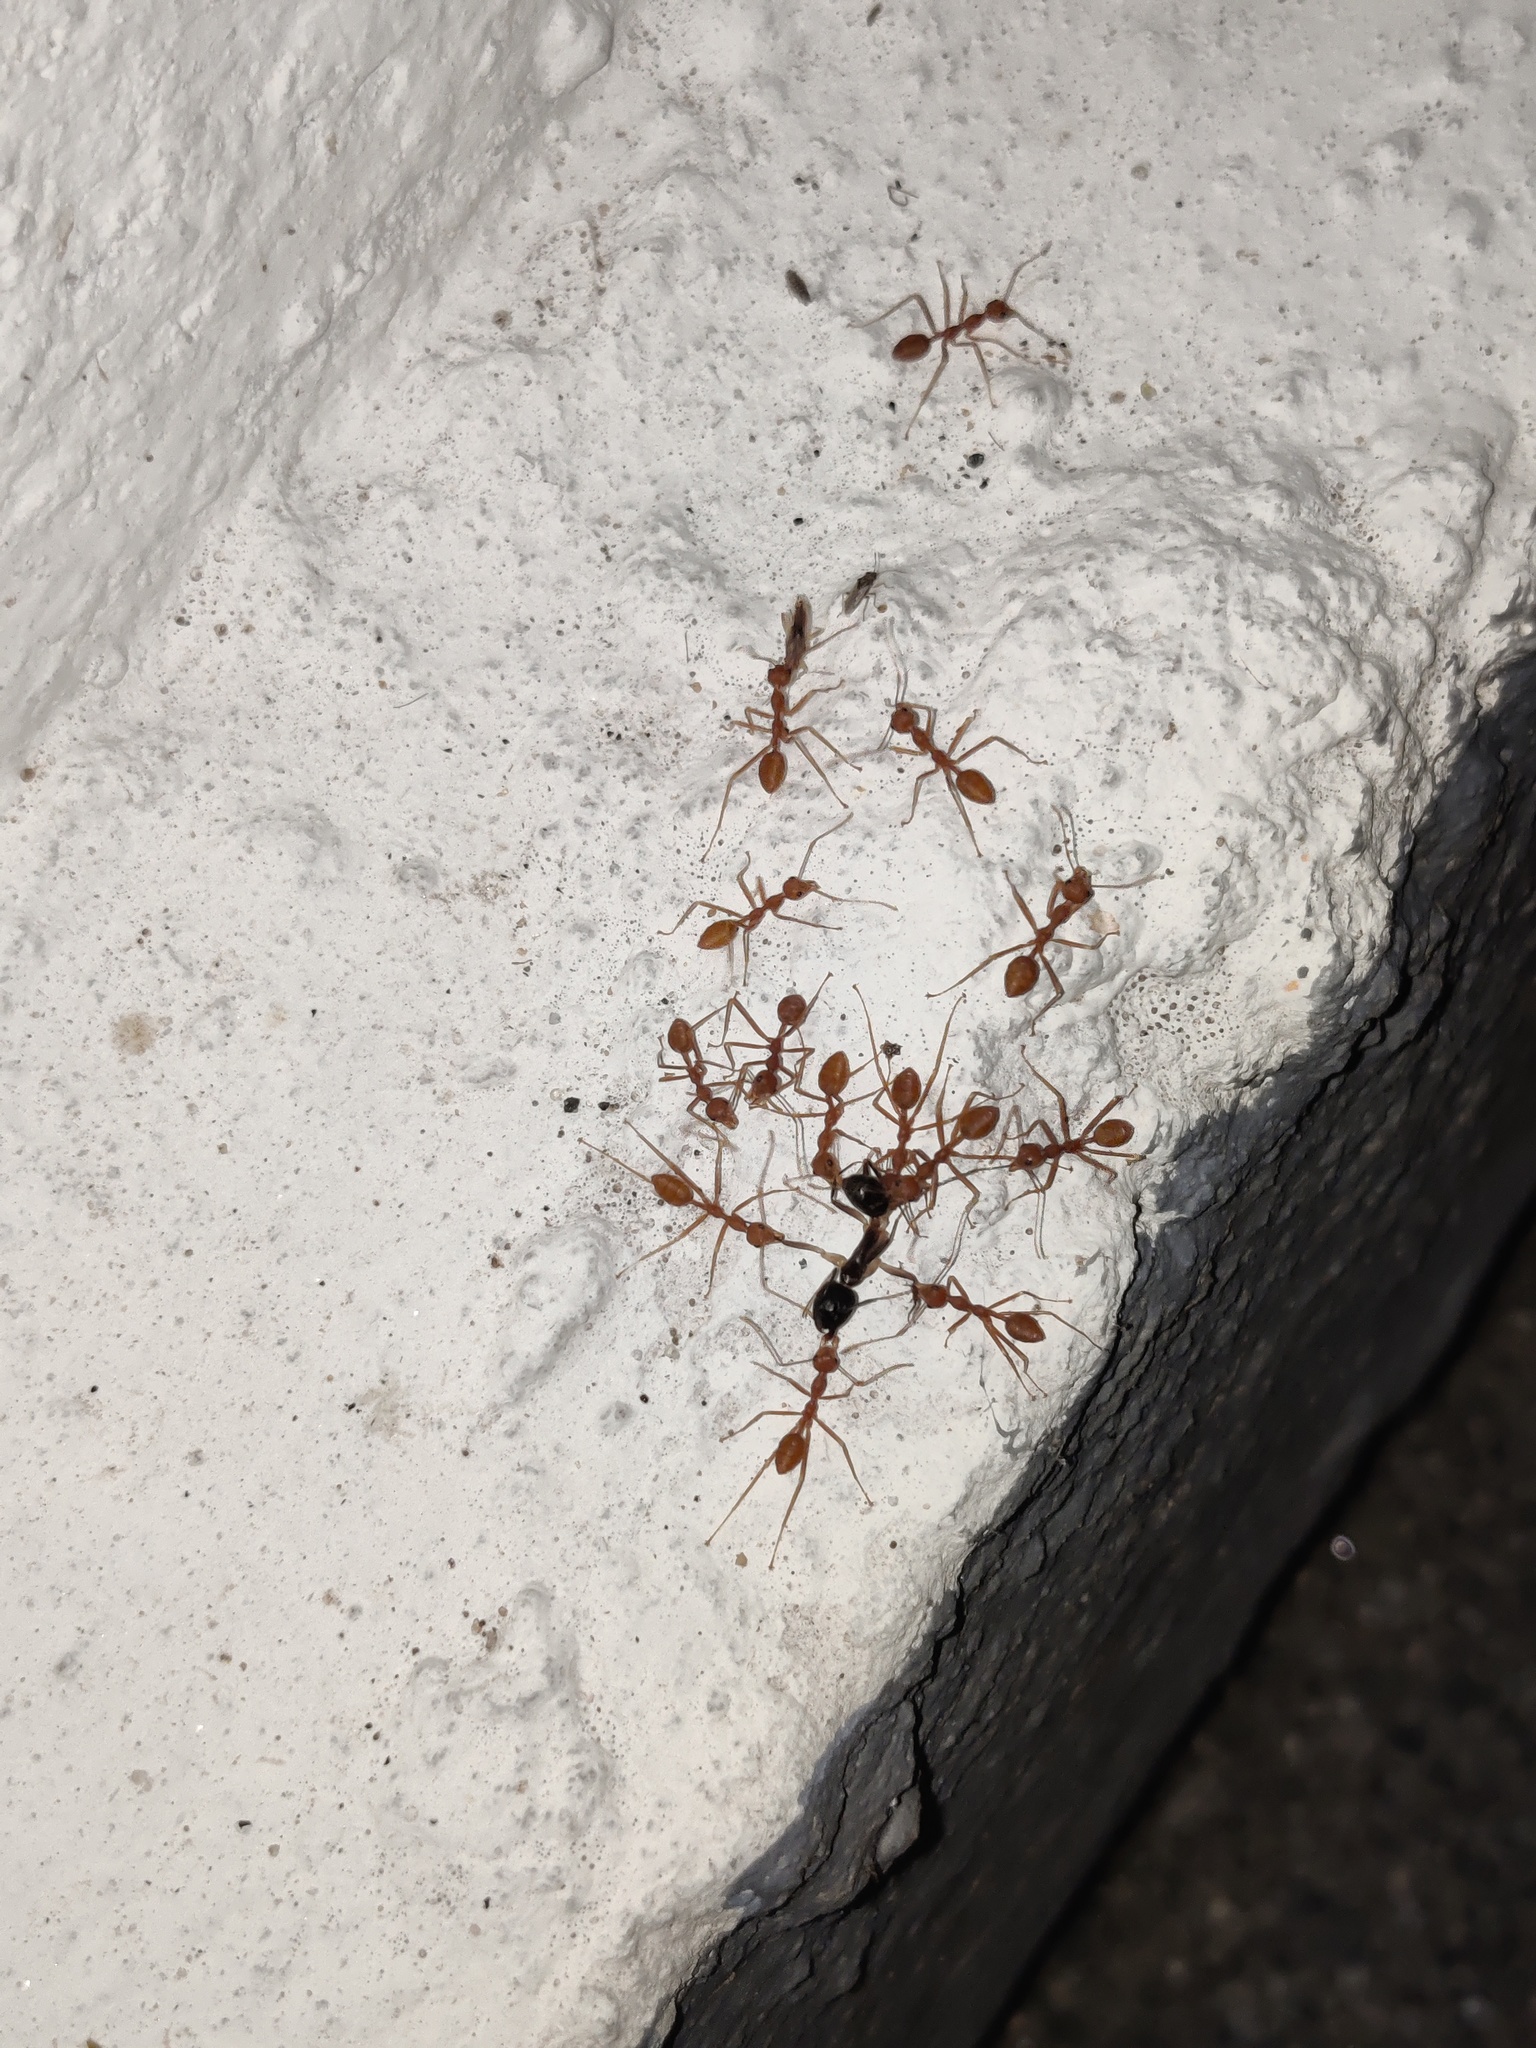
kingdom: Animalia
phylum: Arthropoda
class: Insecta
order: Hymenoptera
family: Formicidae
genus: Oecophylla
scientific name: Oecophylla smaragdina
